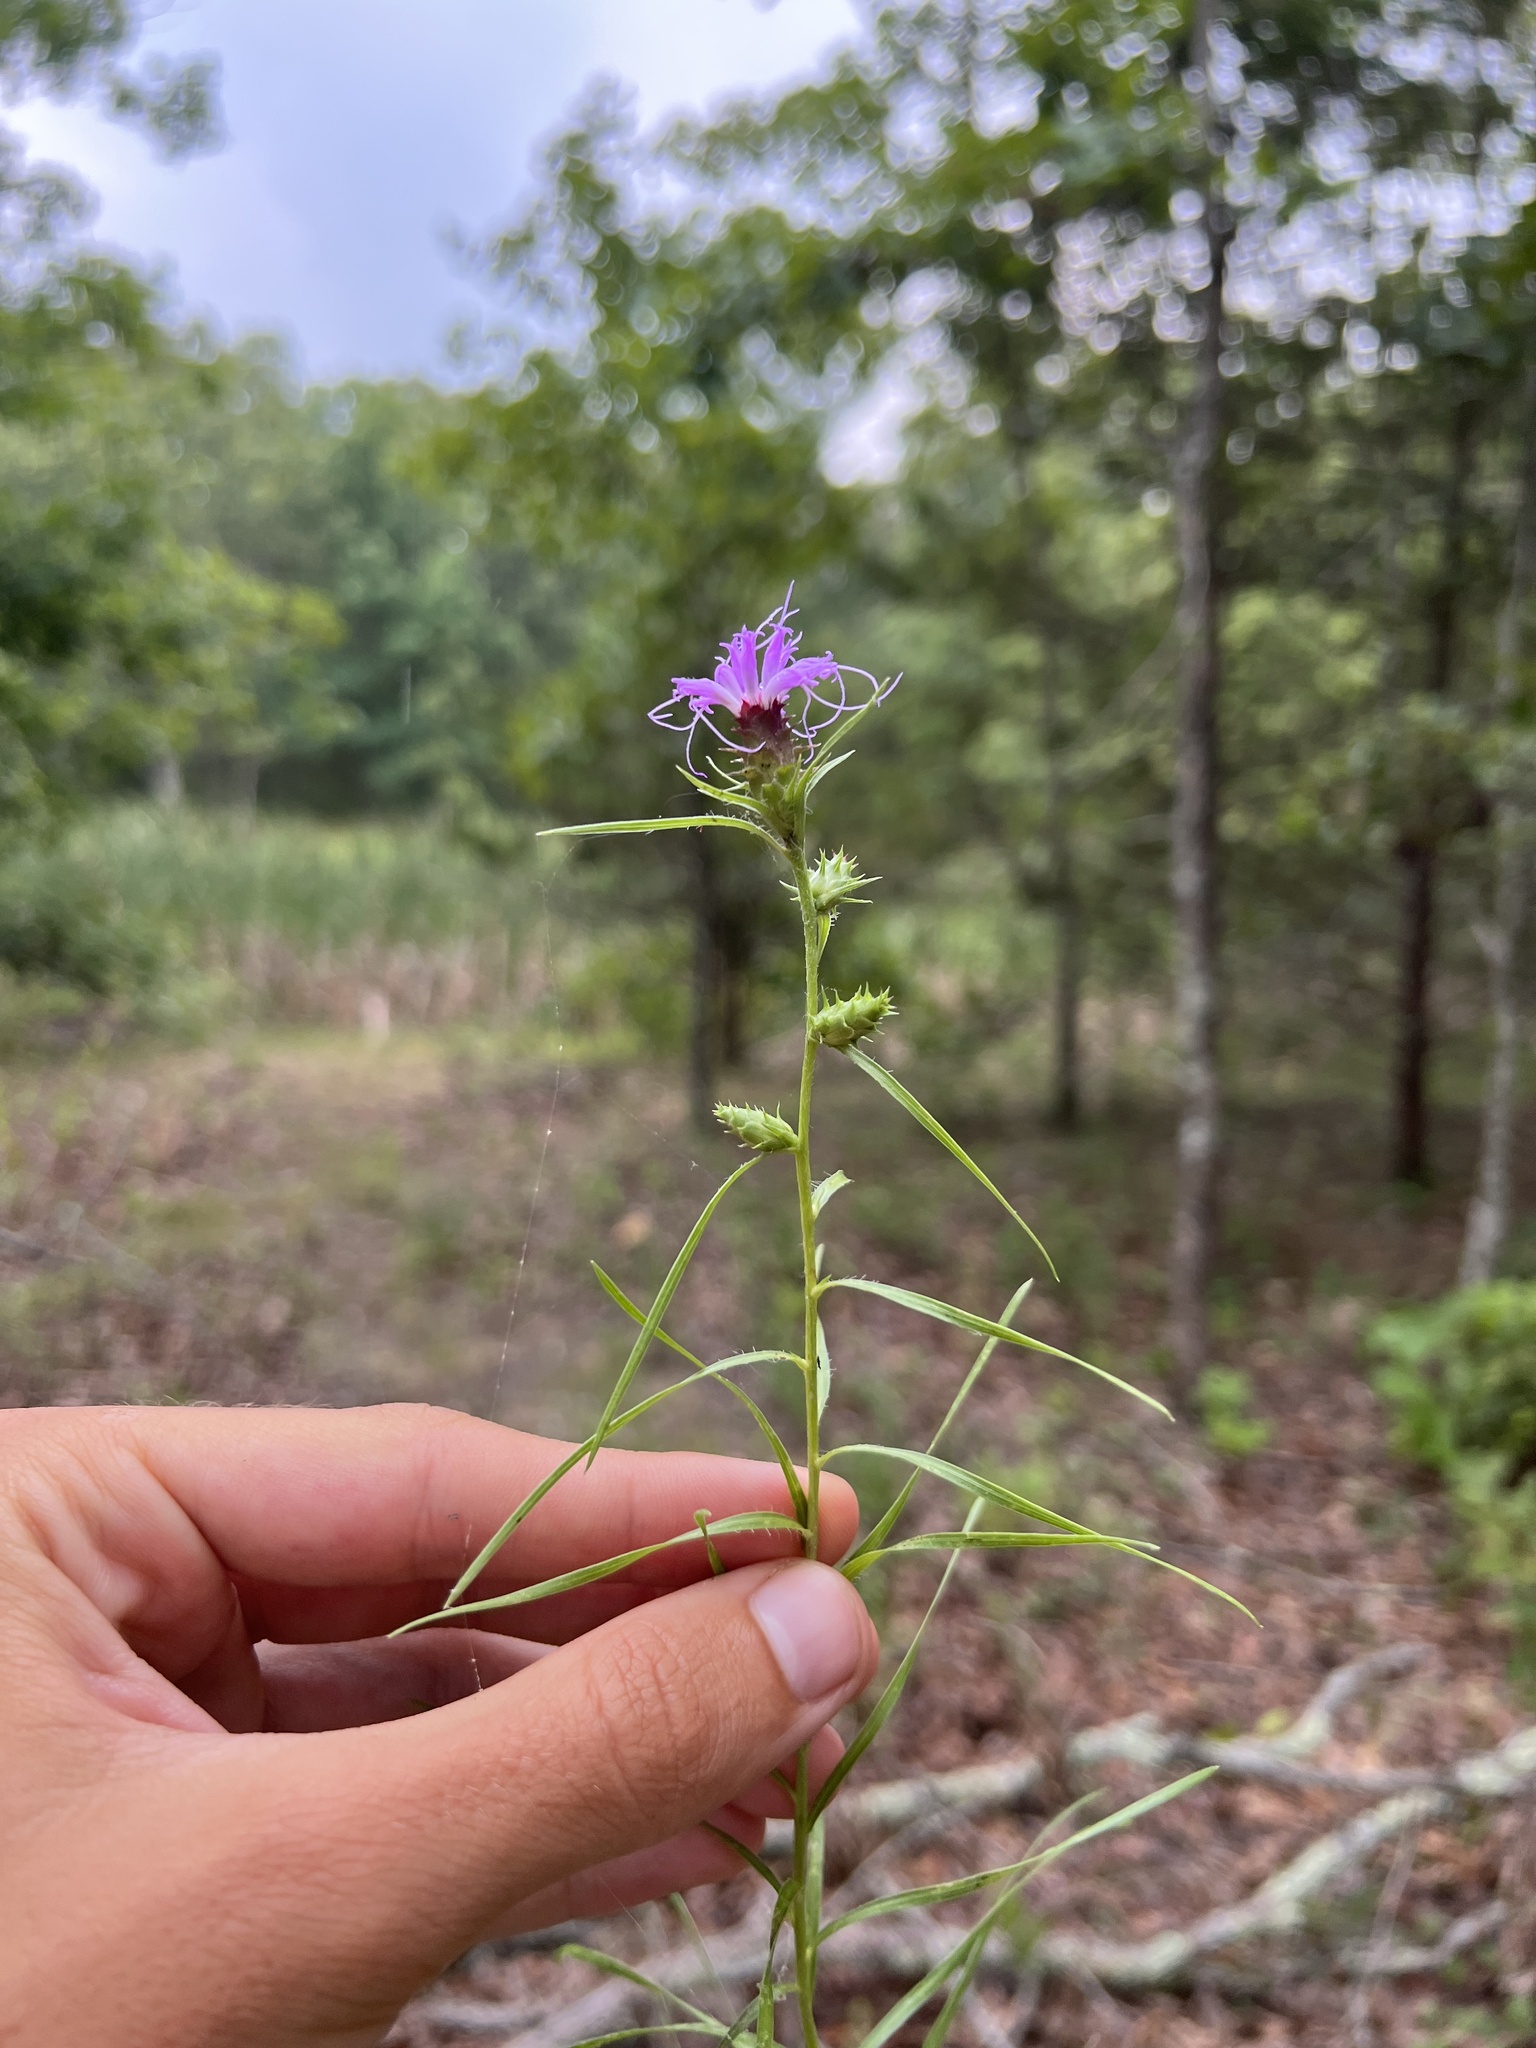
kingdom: Plantae
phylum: Tracheophyta
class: Magnoliopsida
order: Asterales
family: Asteraceae
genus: Liatris
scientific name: Liatris spicata
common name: Florist gayfeather
